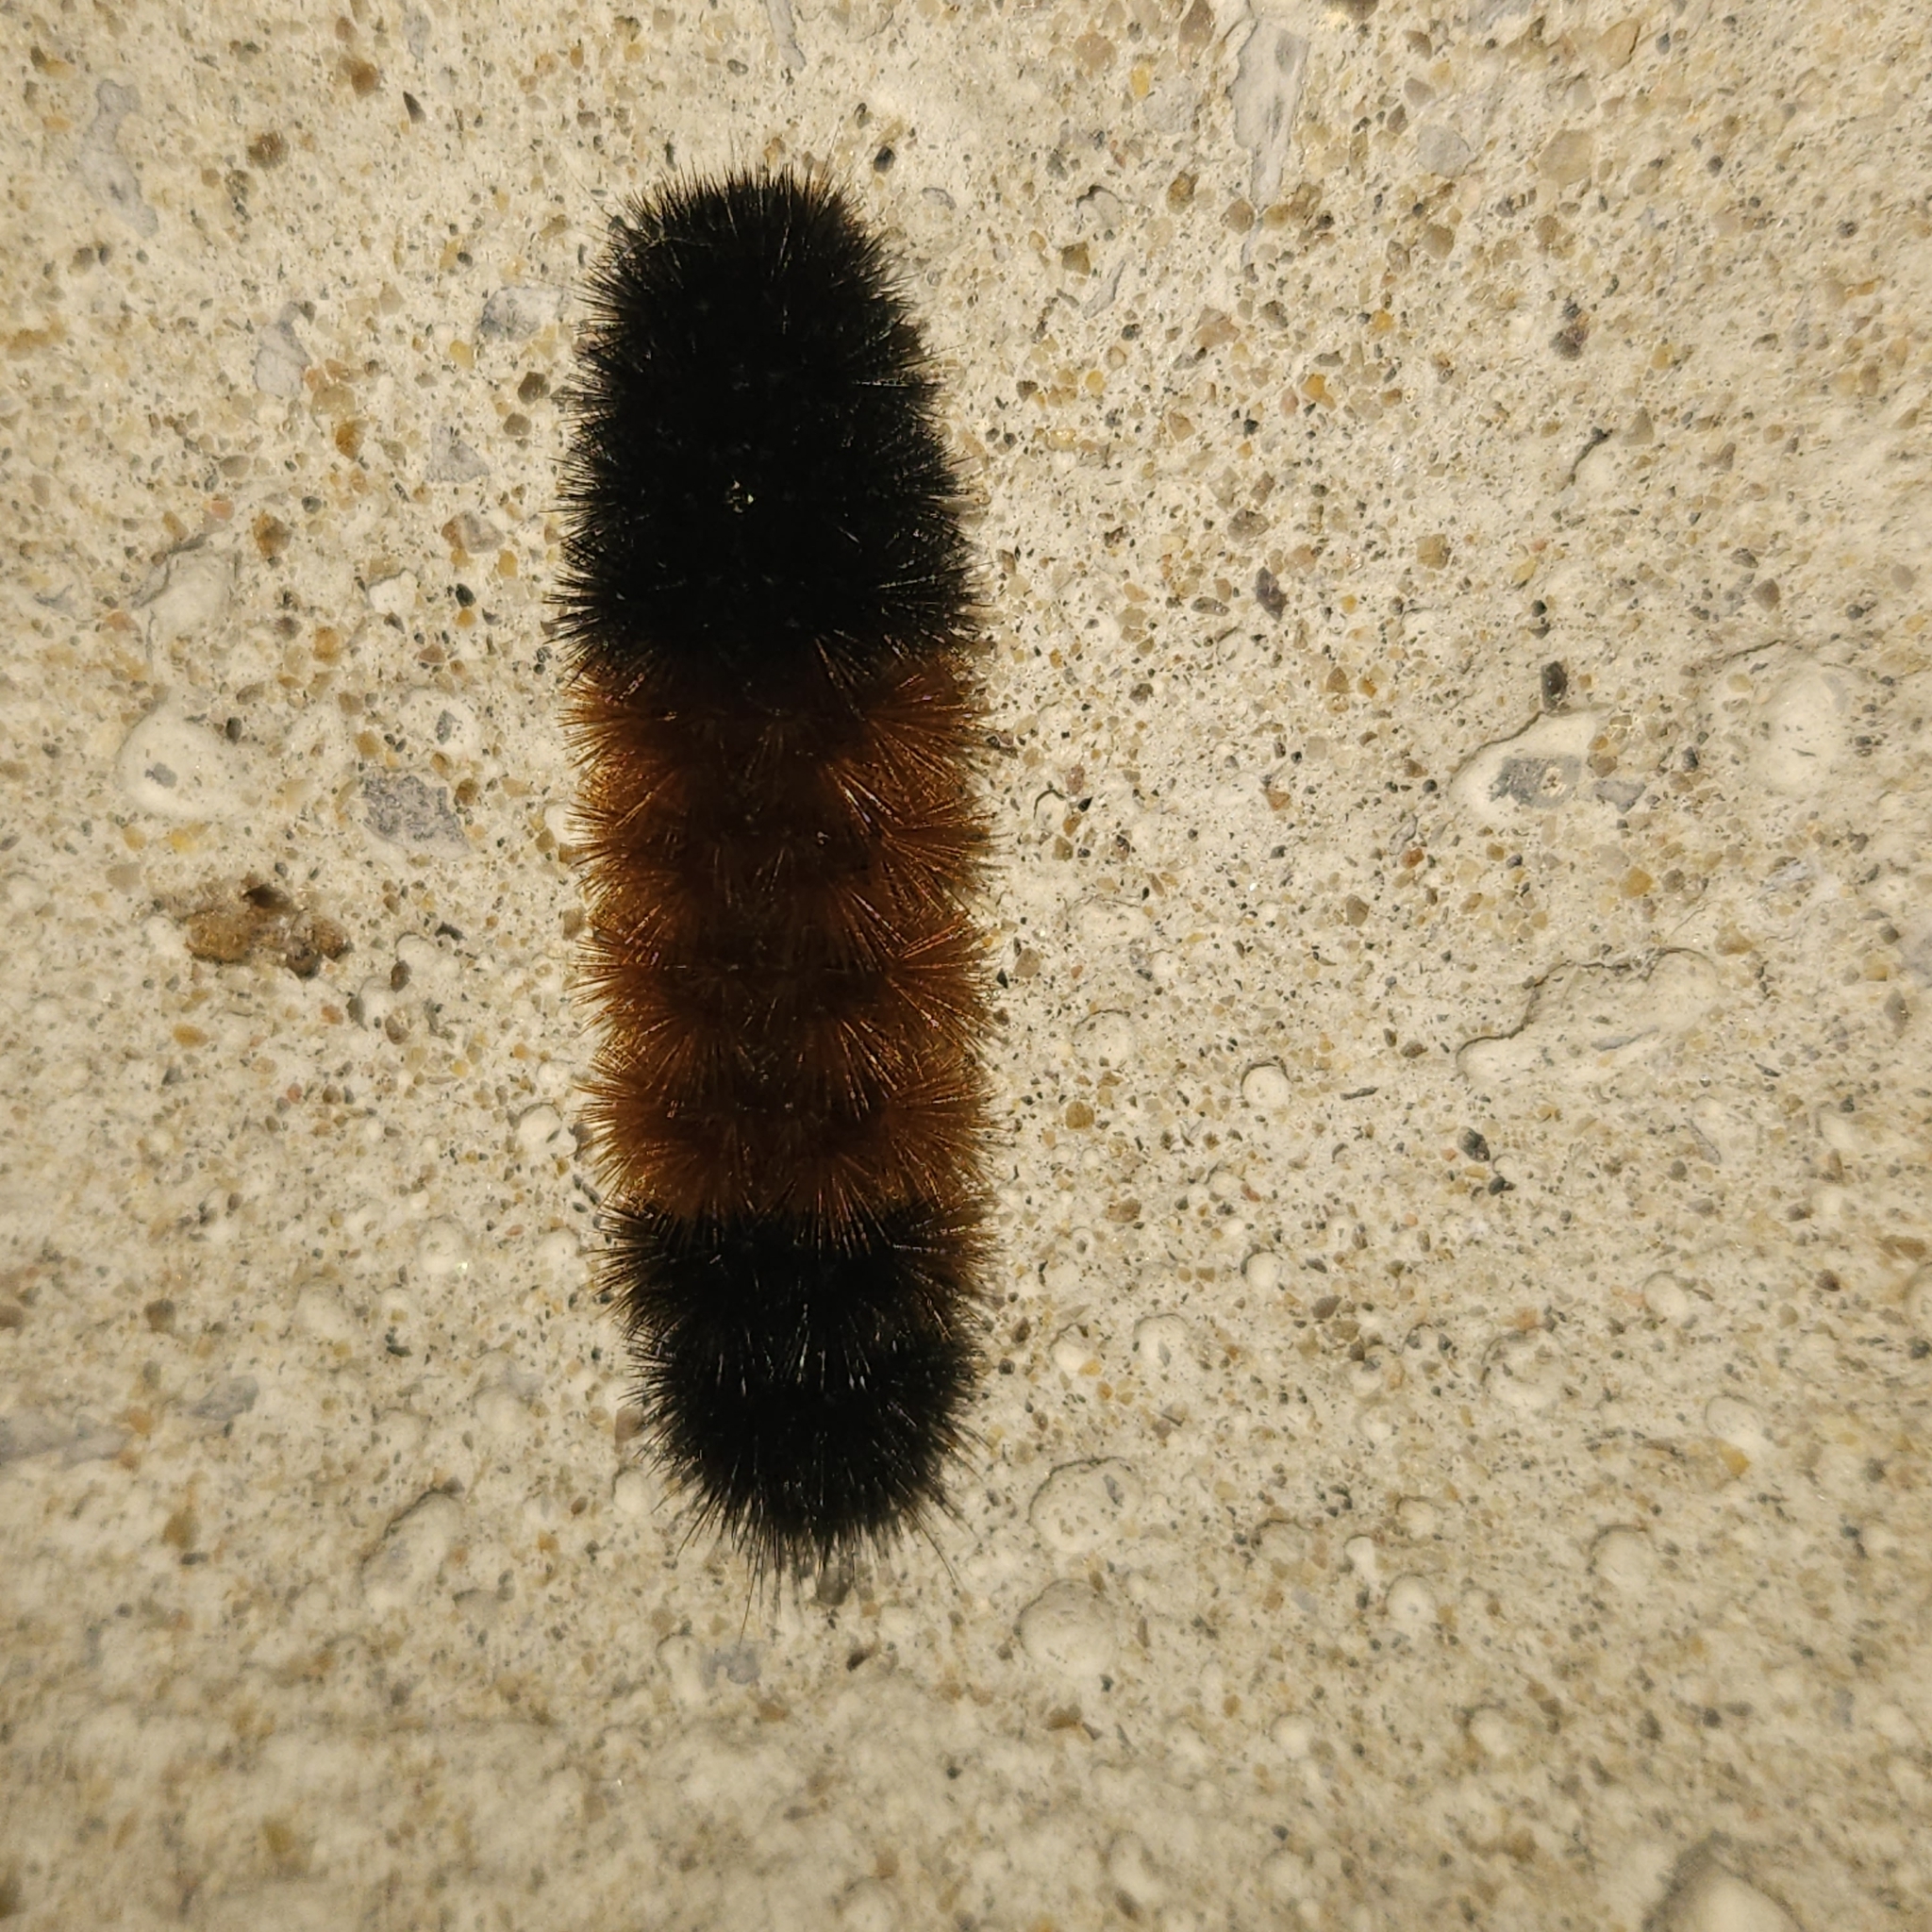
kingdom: Animalia
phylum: Arthropoda
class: Insecta
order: Lepidoptera
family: Erebidae
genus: Pyrrharctia
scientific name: Pyrrharctia isabella
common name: Isabella tiger moth
